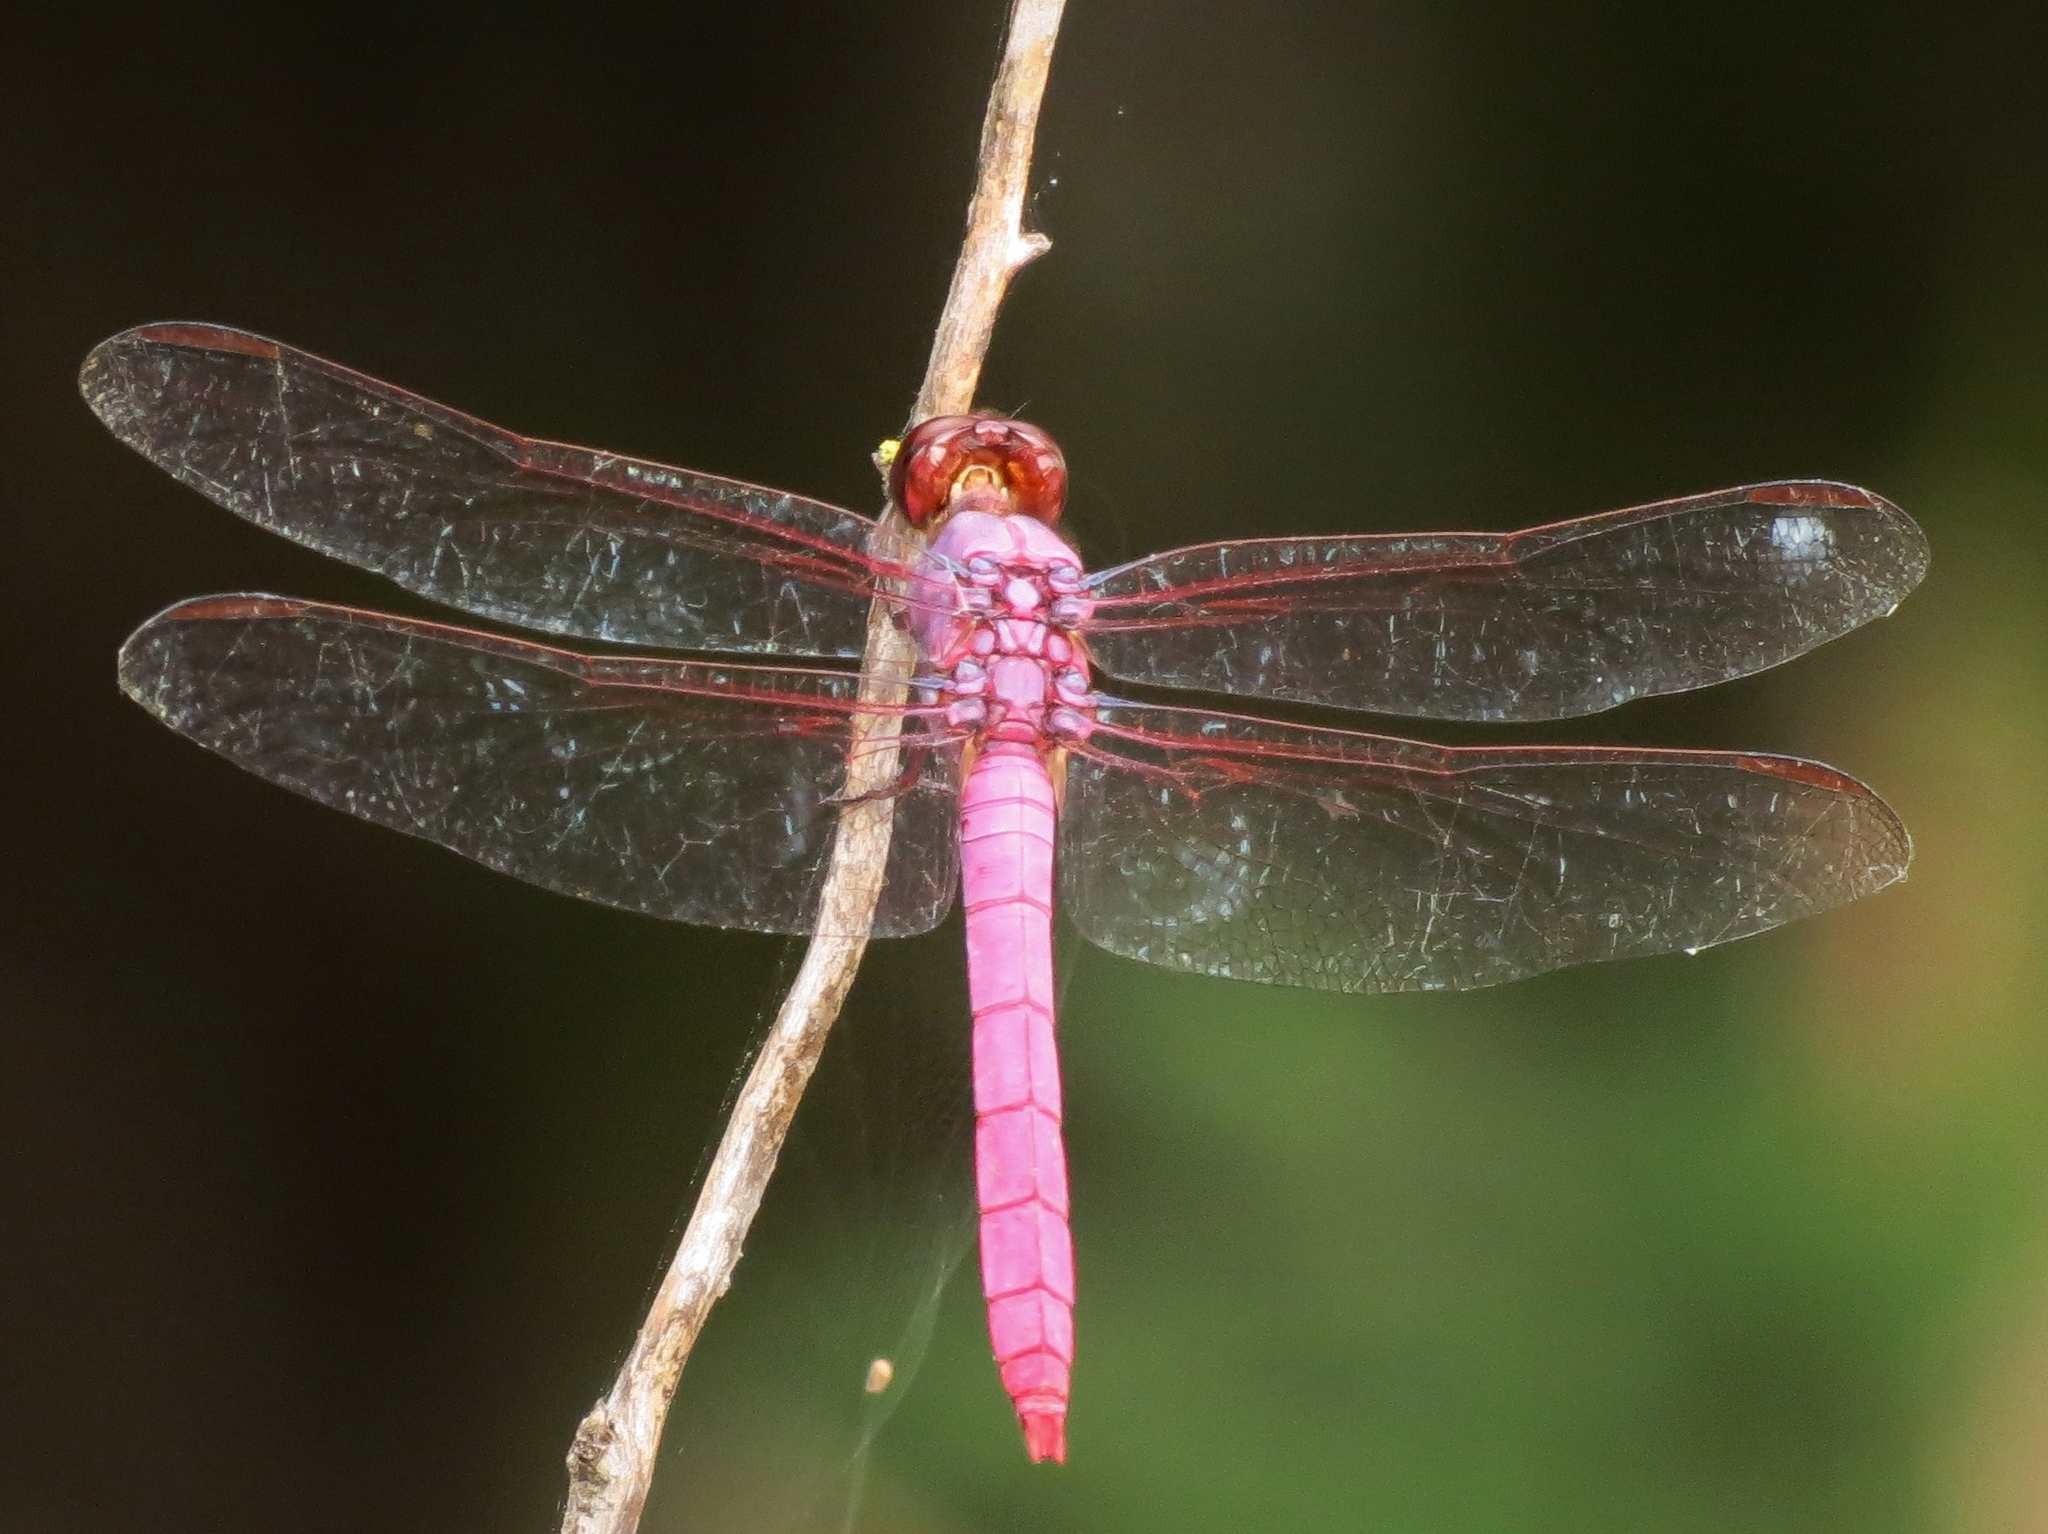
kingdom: Animalia
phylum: Arthropoda
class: Insecta
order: Odonata
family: Libellulidae
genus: Orthemis
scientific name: Orthemis ferruginea
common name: Roseate skimmer
